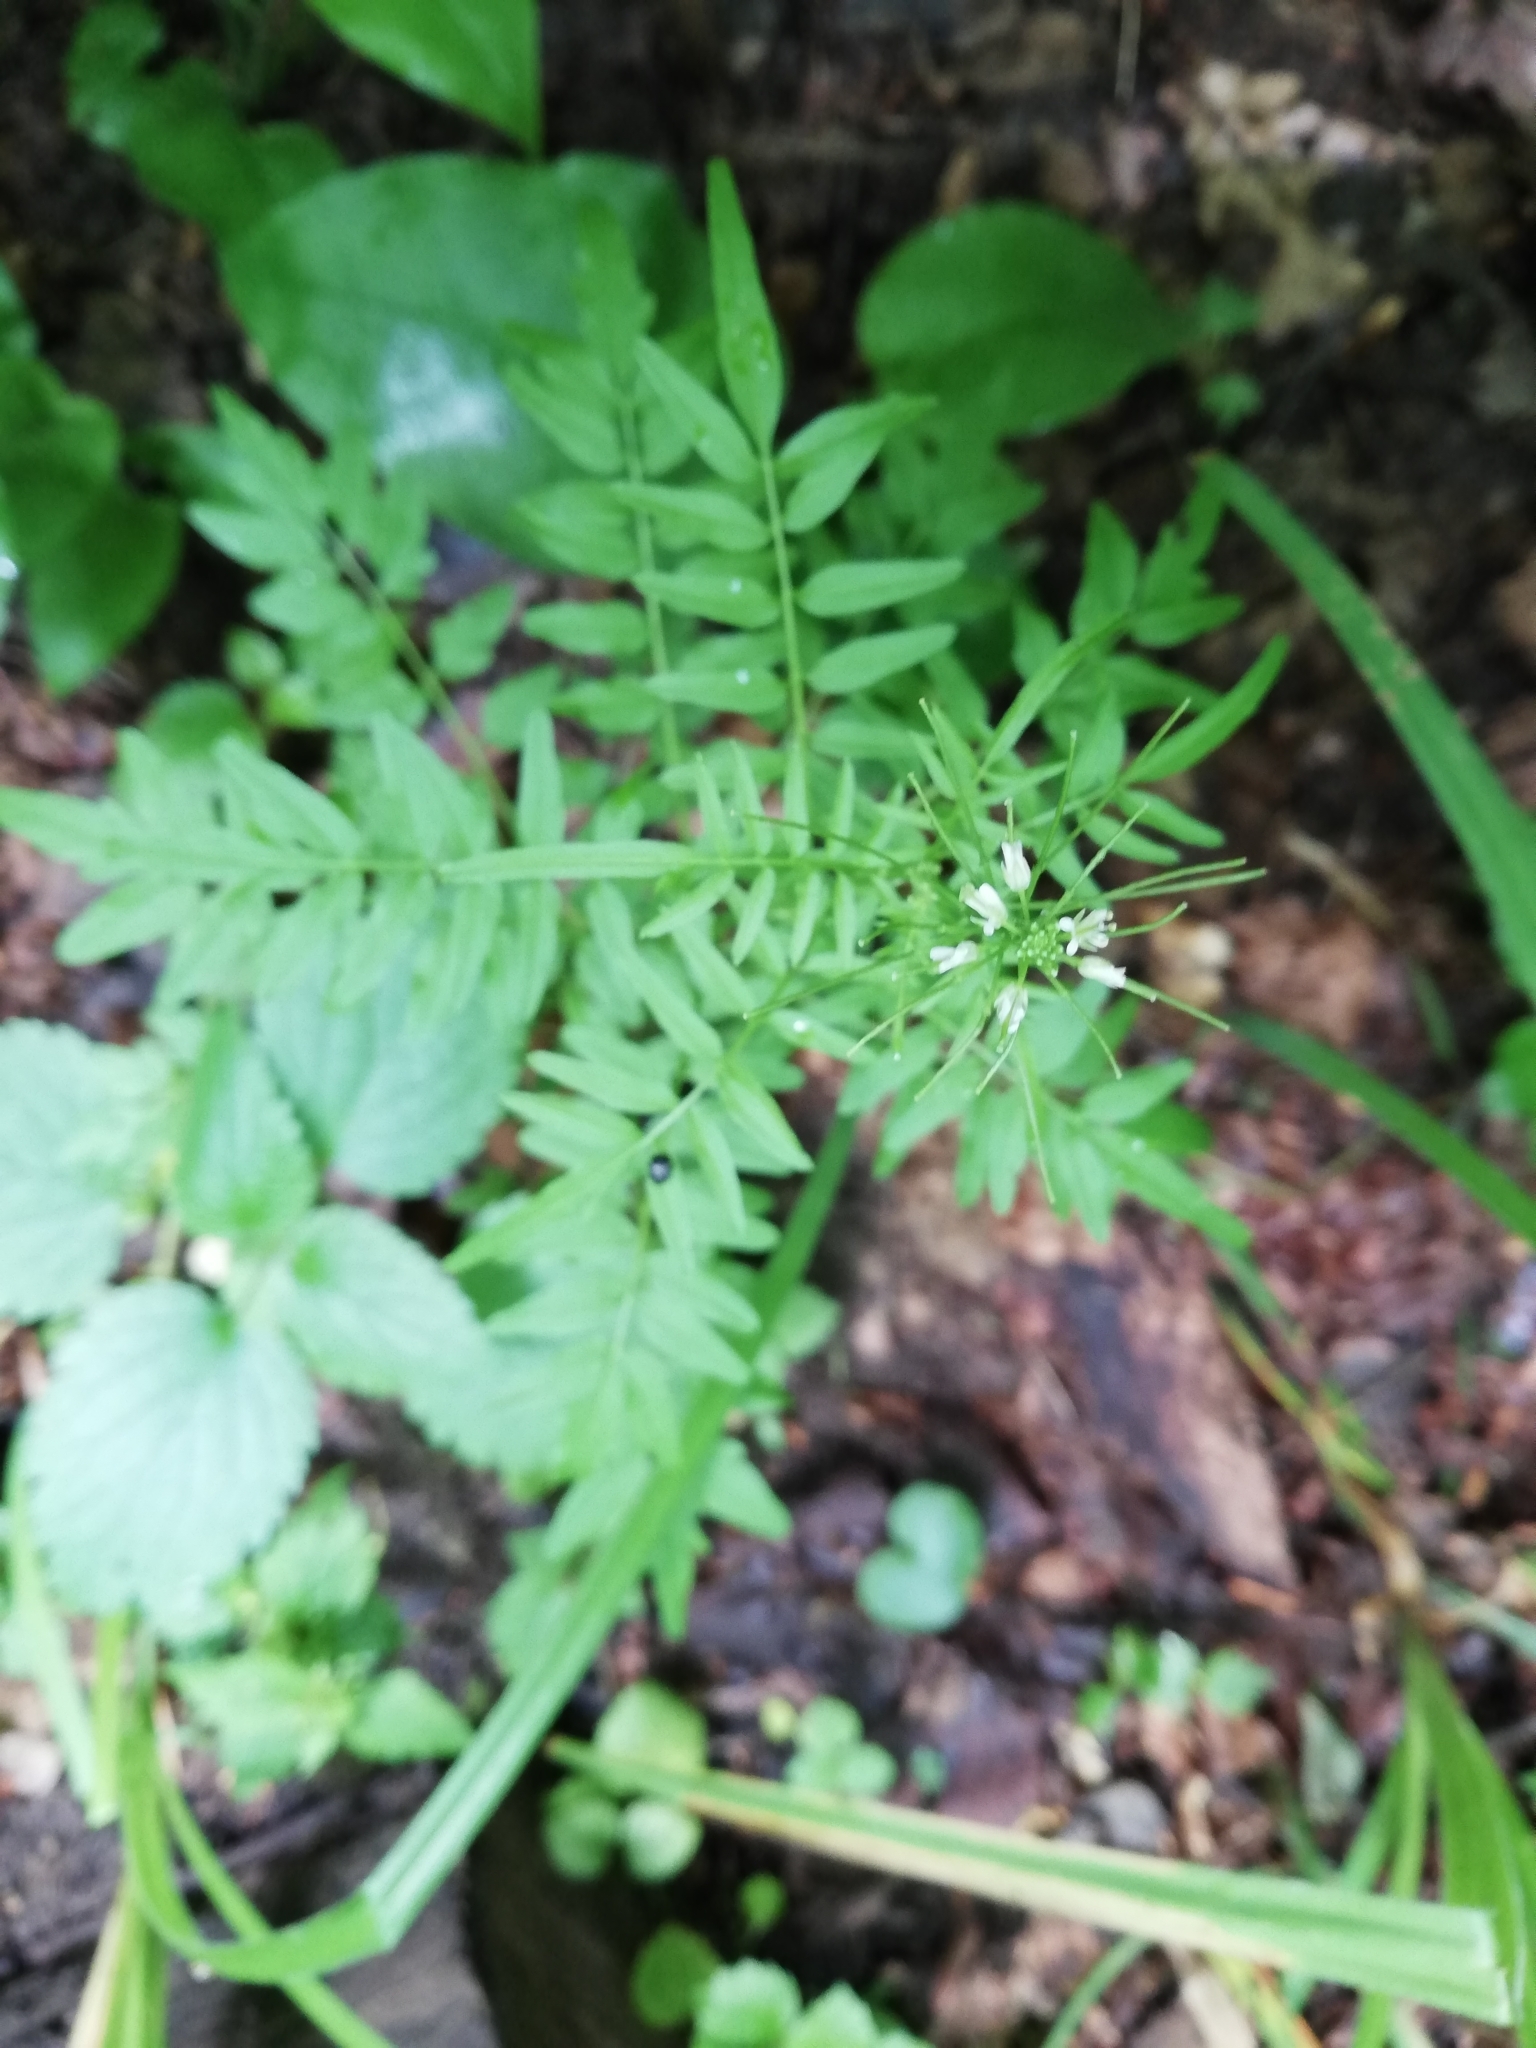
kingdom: Plantae
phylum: Tracheophyta
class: Magnoliopsida
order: Brassicales
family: Brassicaceae
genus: Cardamine
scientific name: Cardamine impatiens
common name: Narrow-leaved bitter-cress
